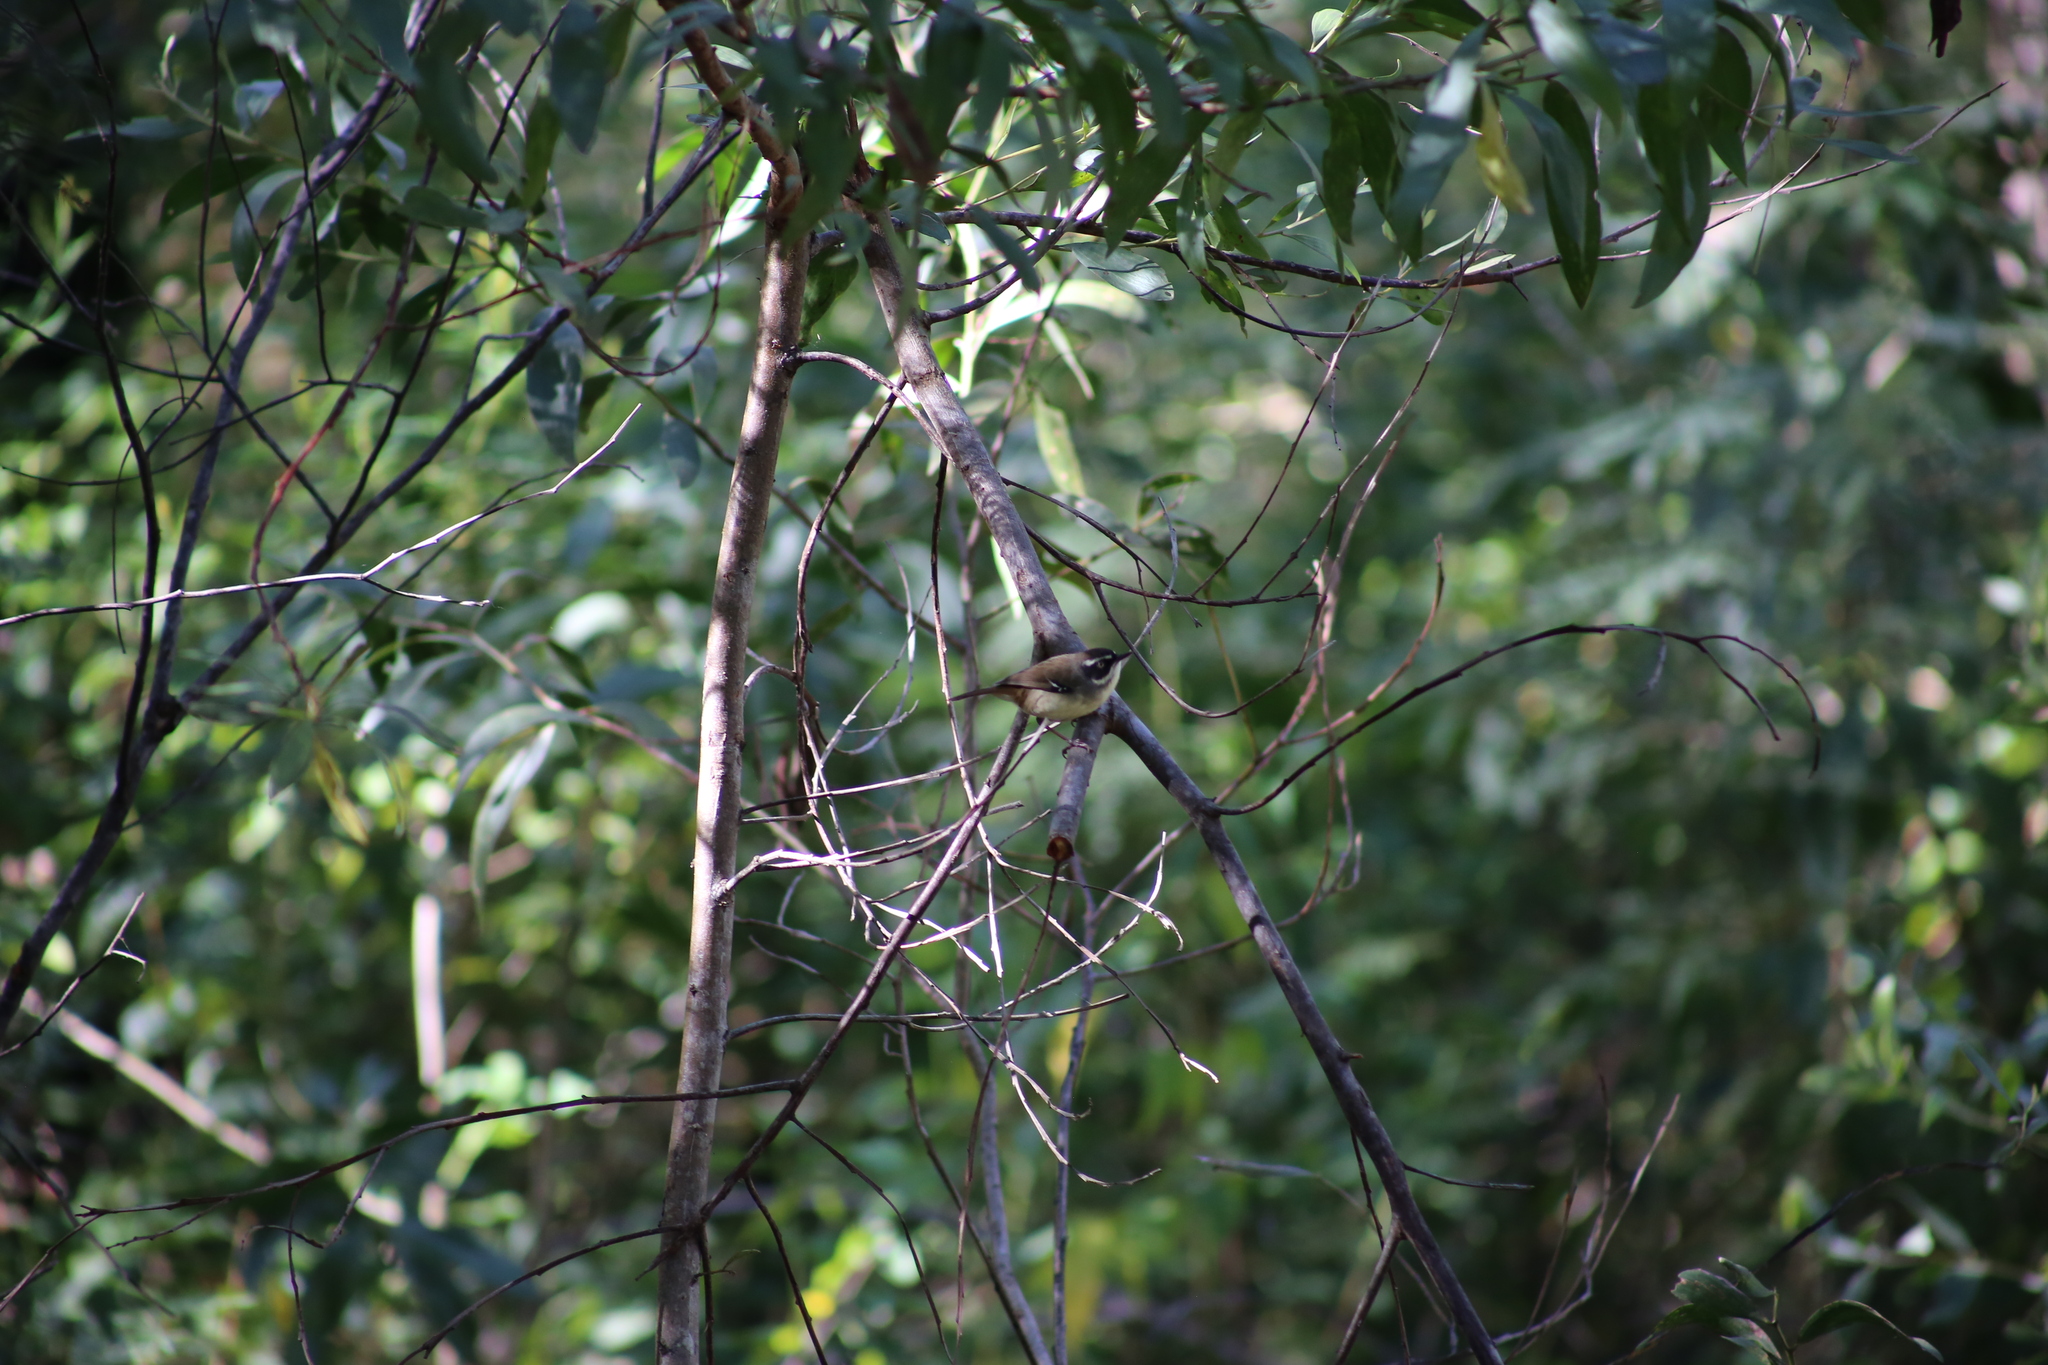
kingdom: Animalia
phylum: Chordata
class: Aves
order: Passeriformes
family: Acanthizidae
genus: Sericornis
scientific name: Sericornis frontalis
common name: White-browed scrubwren
